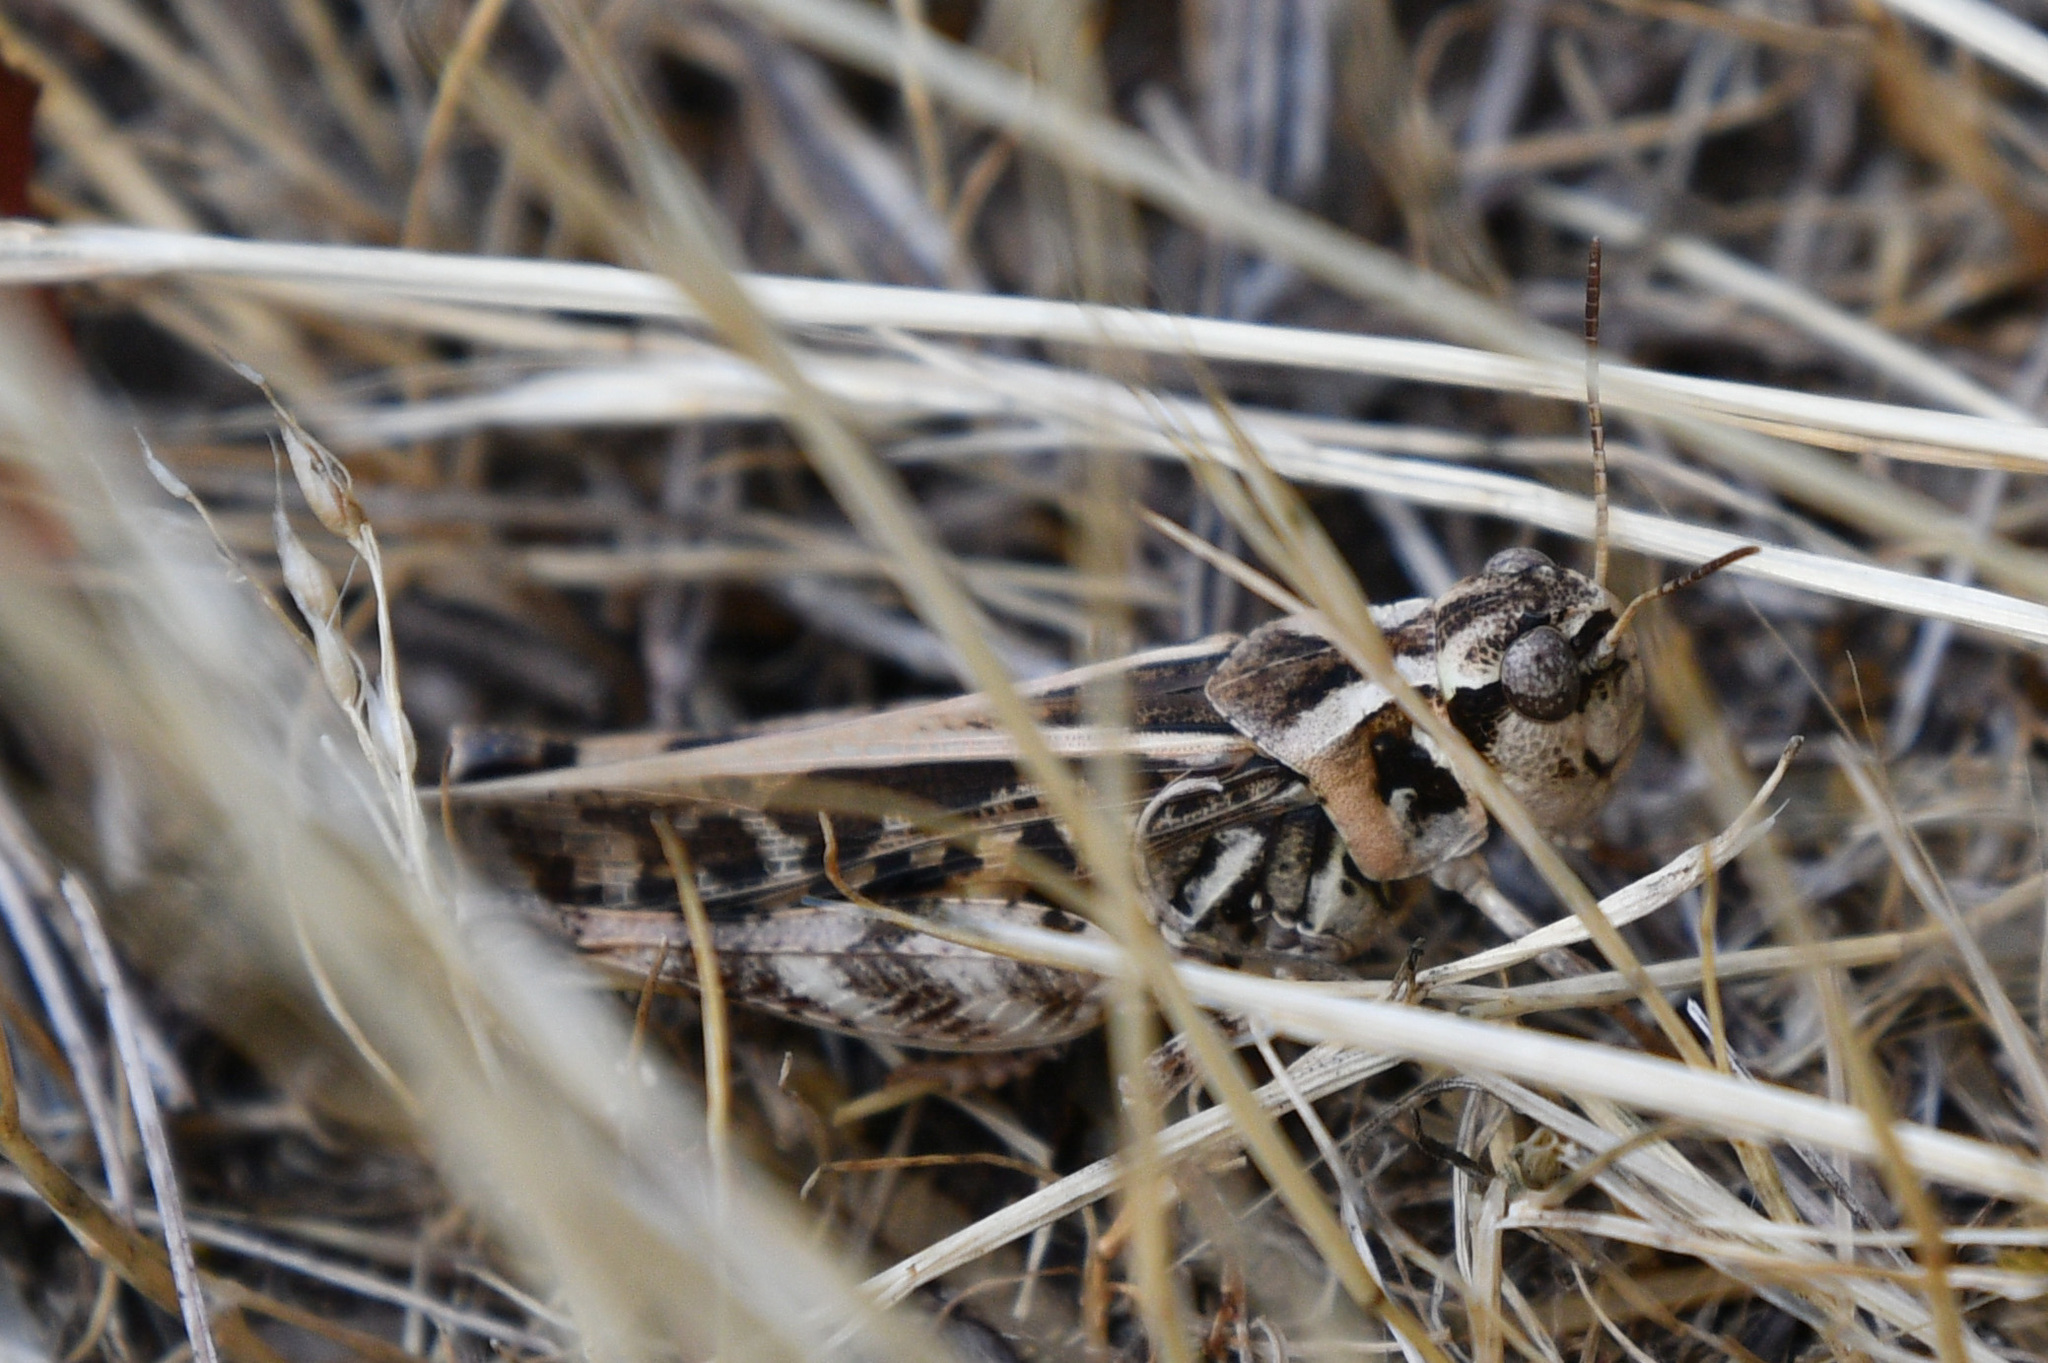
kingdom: Animalia
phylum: Arthropoda
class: Insecta
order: Orthoptera
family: Acrididae
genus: Camnula
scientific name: Camnula pellucida
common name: Clear-winged grasshopper
